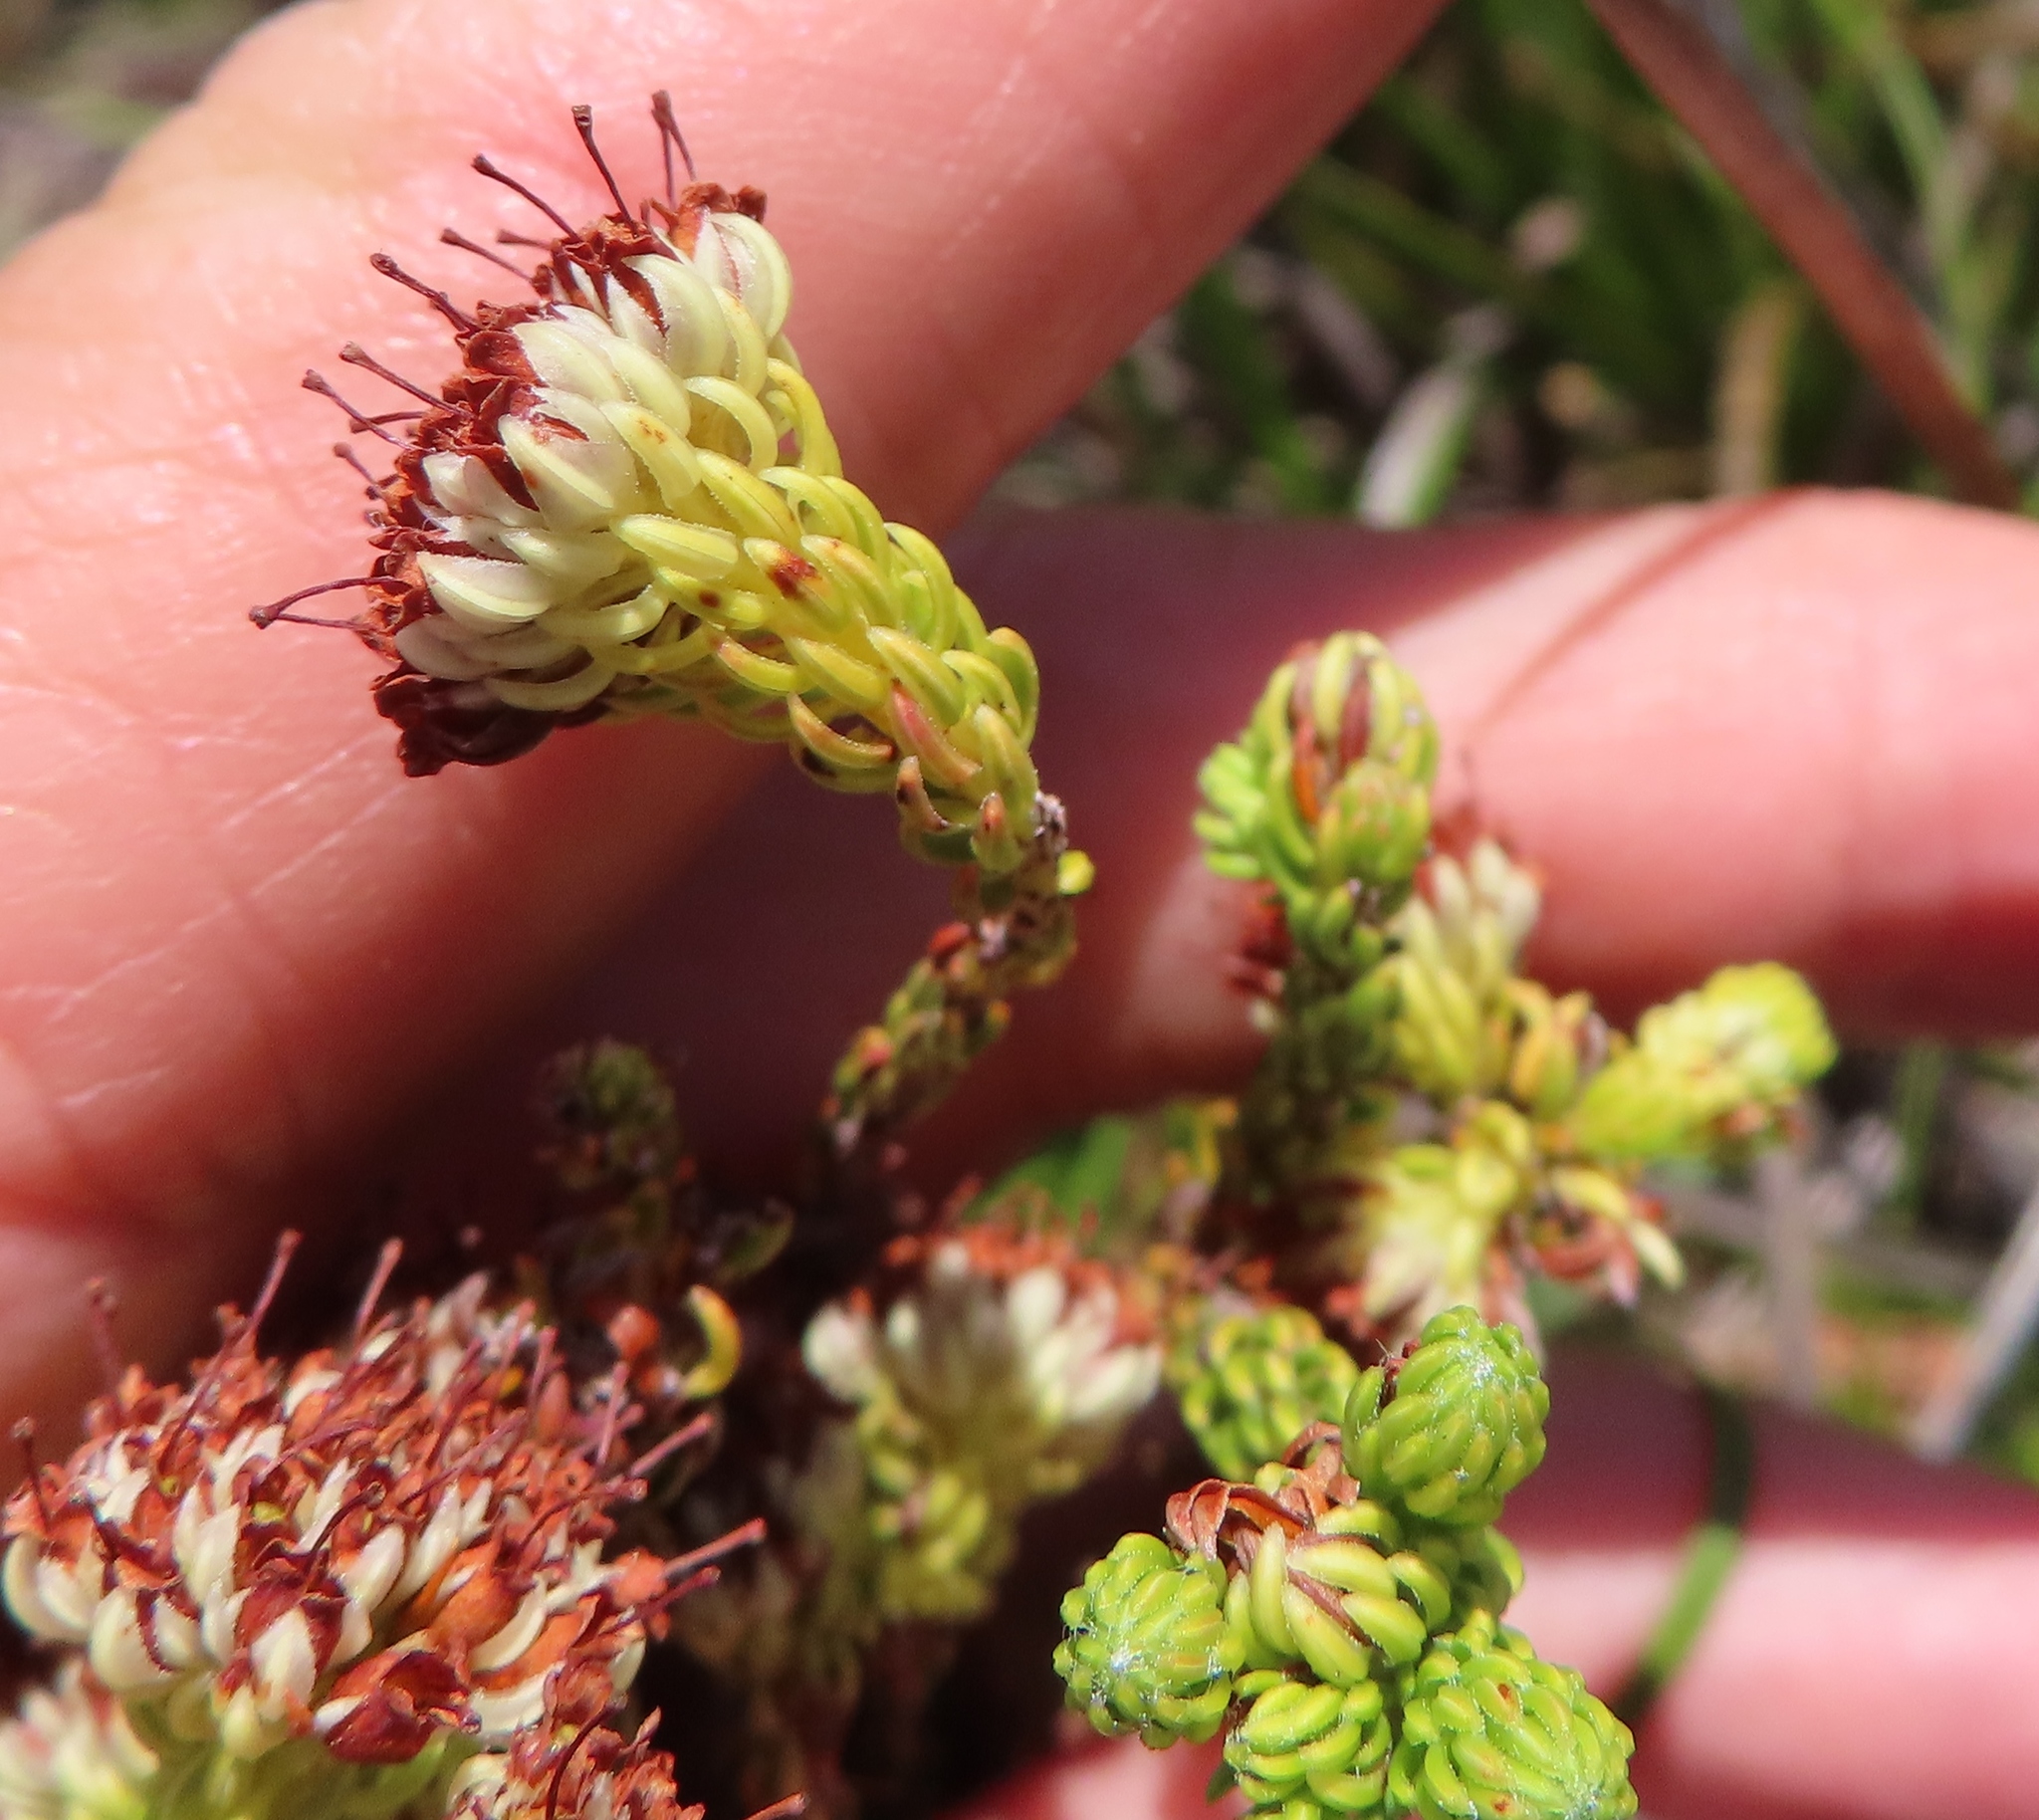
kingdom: Plantae
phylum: Tracheophyta
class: Magnoliopsida
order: Ericales
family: Ericaceae
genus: Erica
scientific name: Erica bruniifolia
